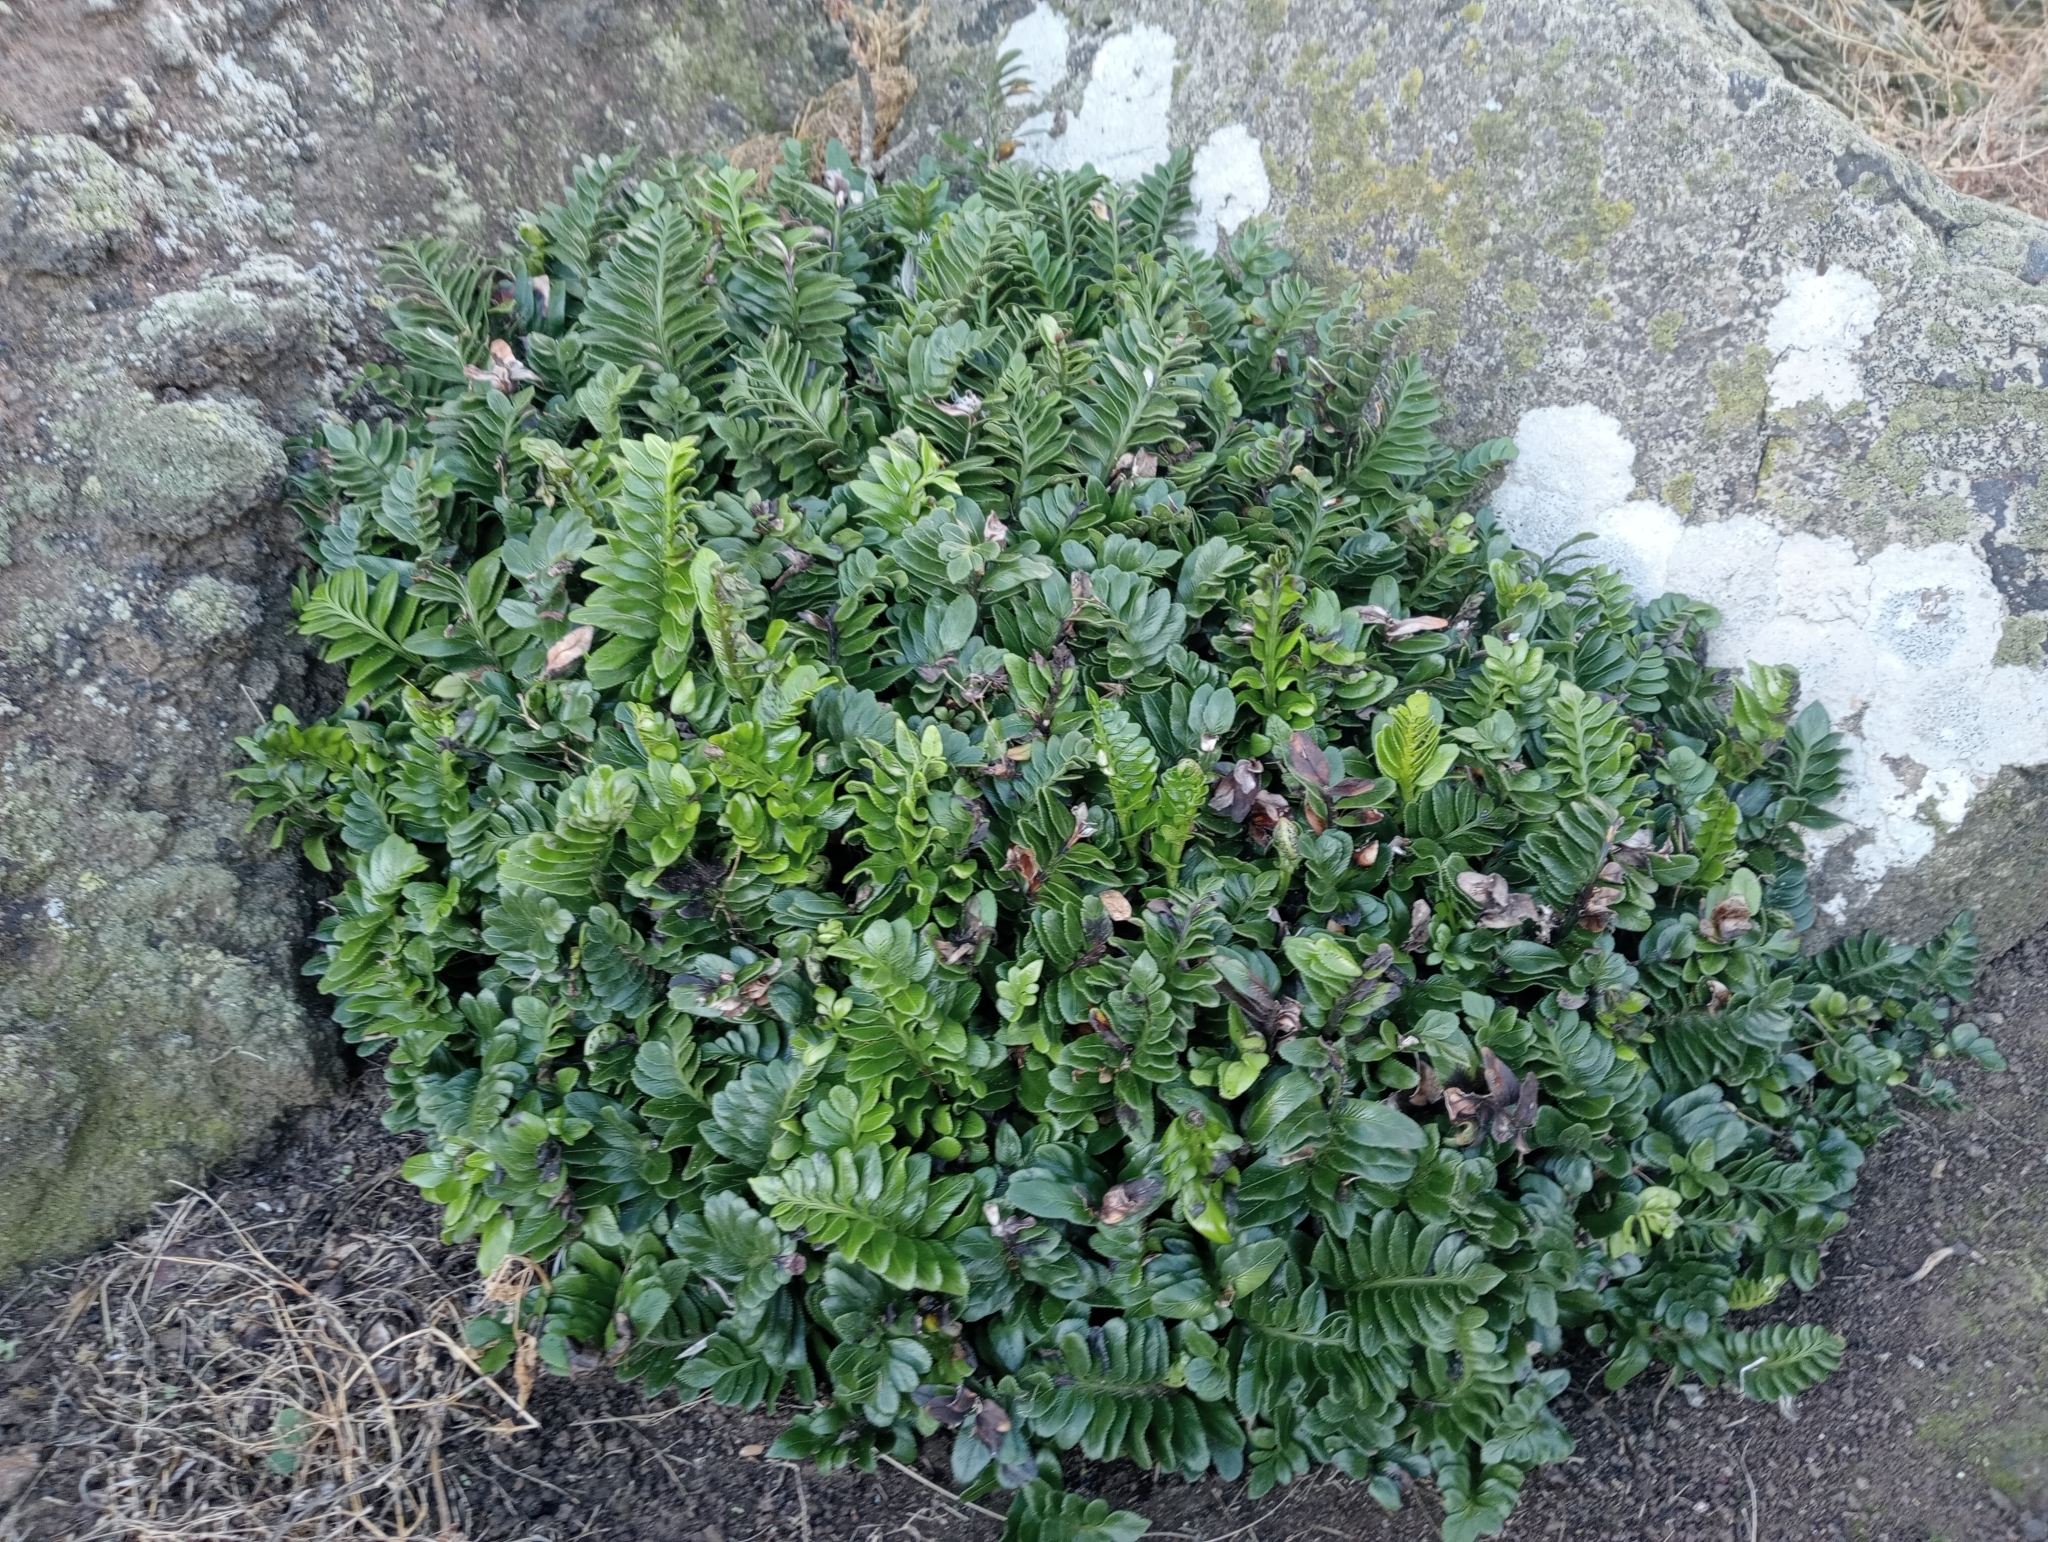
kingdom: Plantae
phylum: Tracheophyta
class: Polypodiopsida
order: Polypodiales
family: Aspleniaceae
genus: Asplenium
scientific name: Asplenium obtusatum
